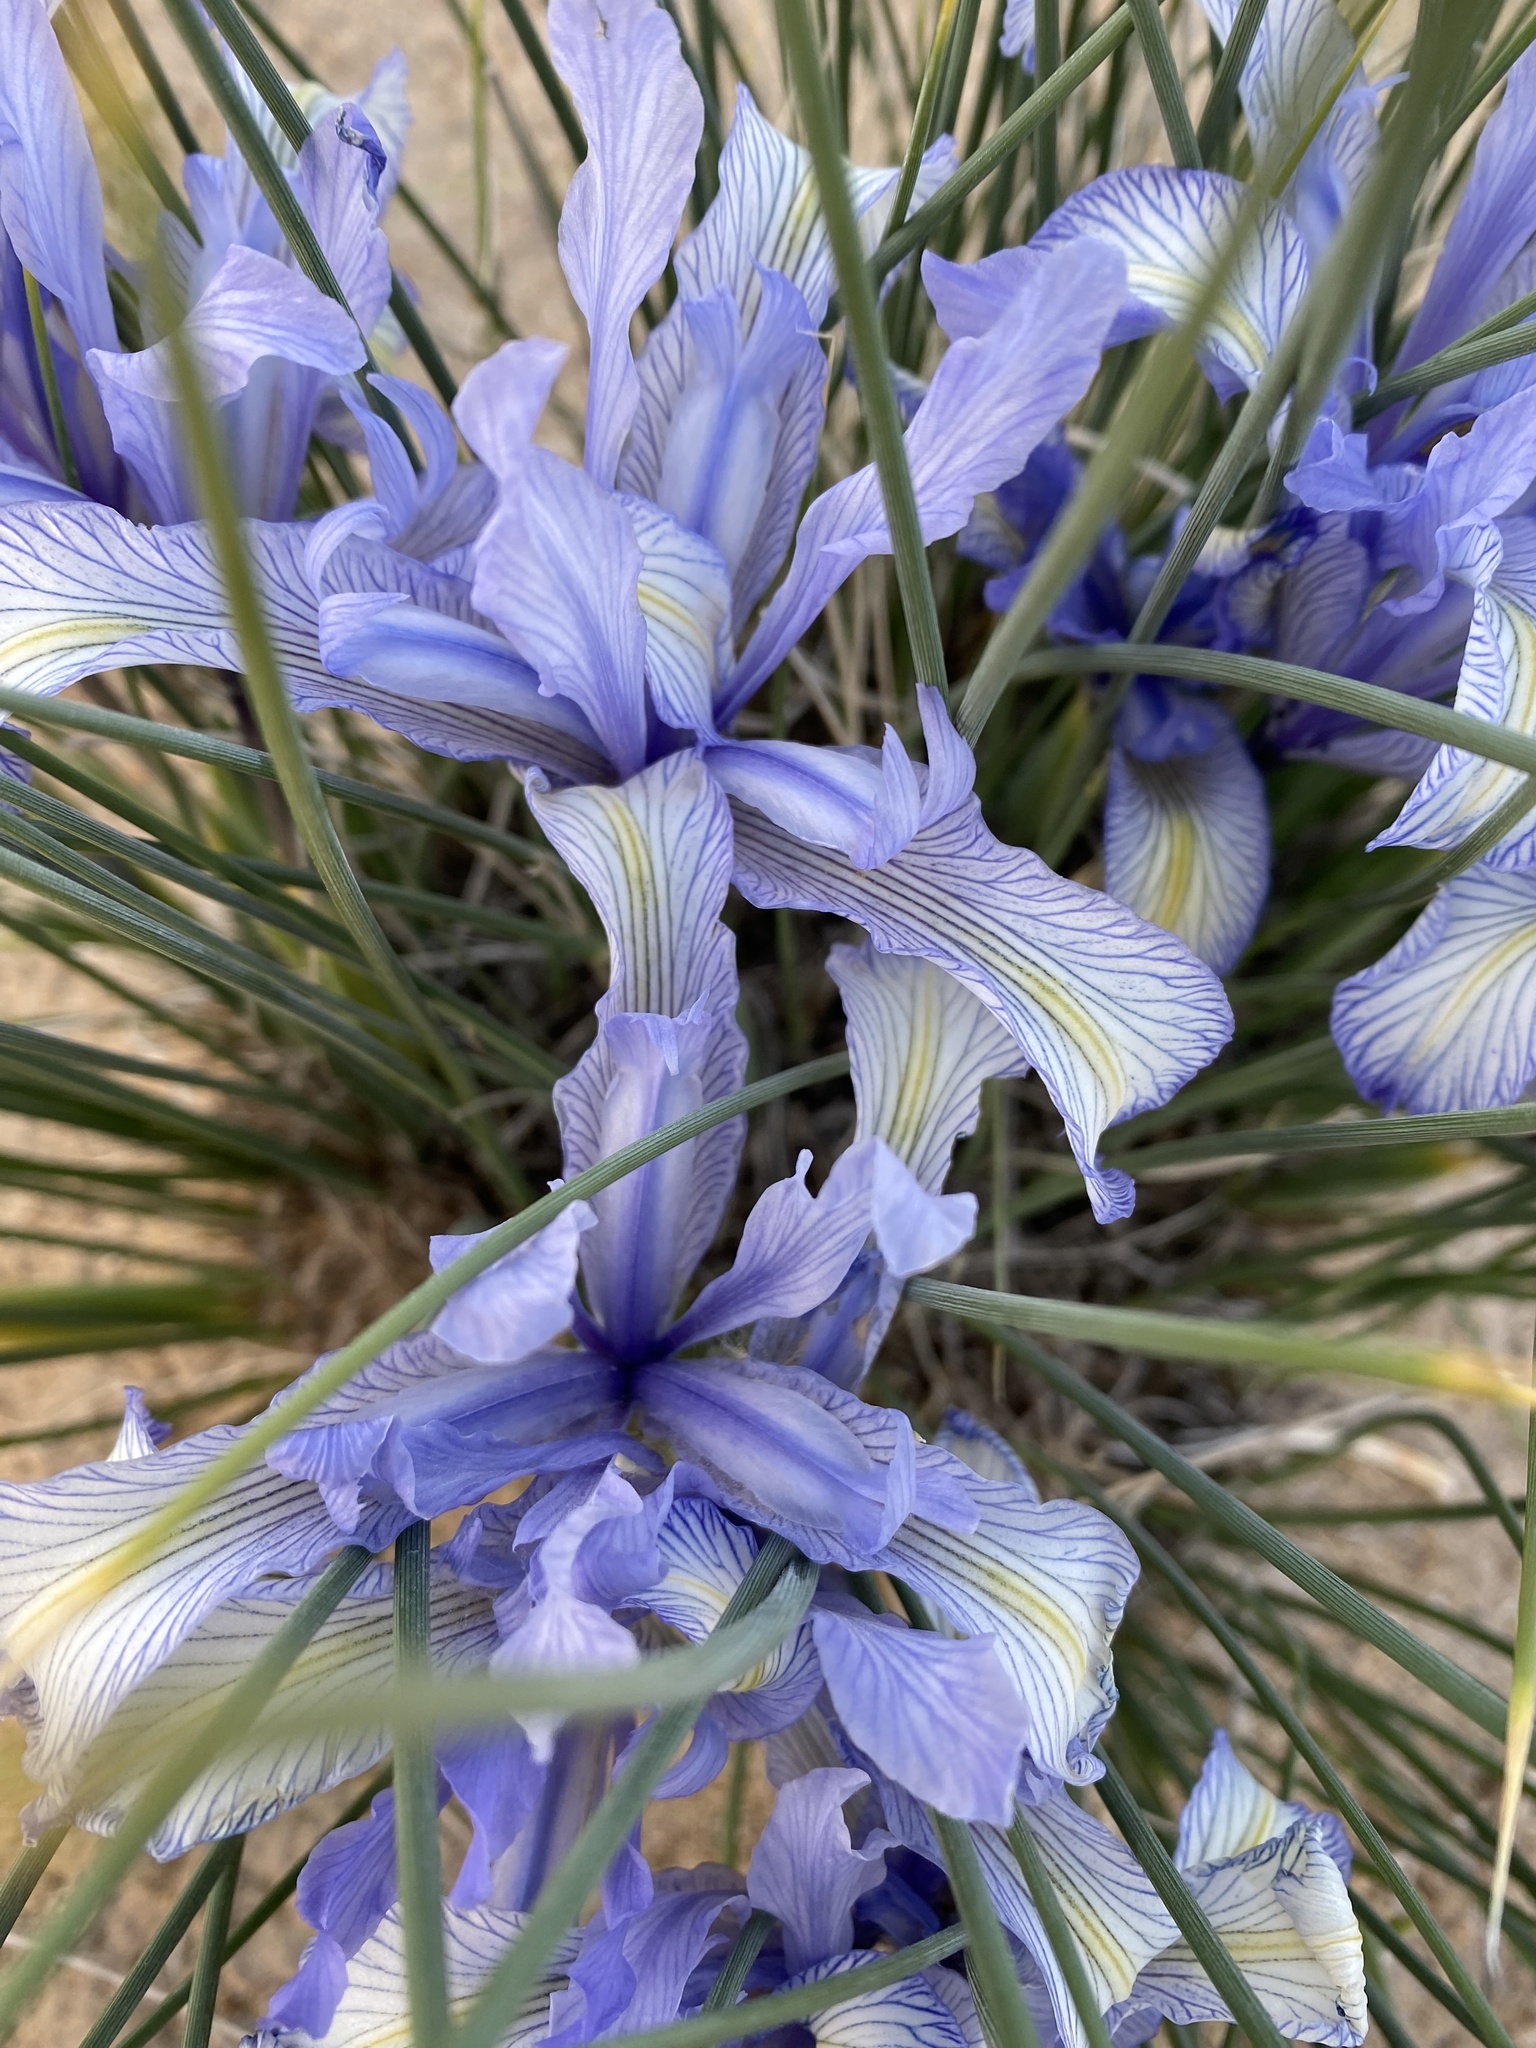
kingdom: Plantae
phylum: Tracheophyta
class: Liliopsida
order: Asparagales
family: Iridaceae
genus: Iris
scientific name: Iris tenuifolia
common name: Slender-leaf iris
